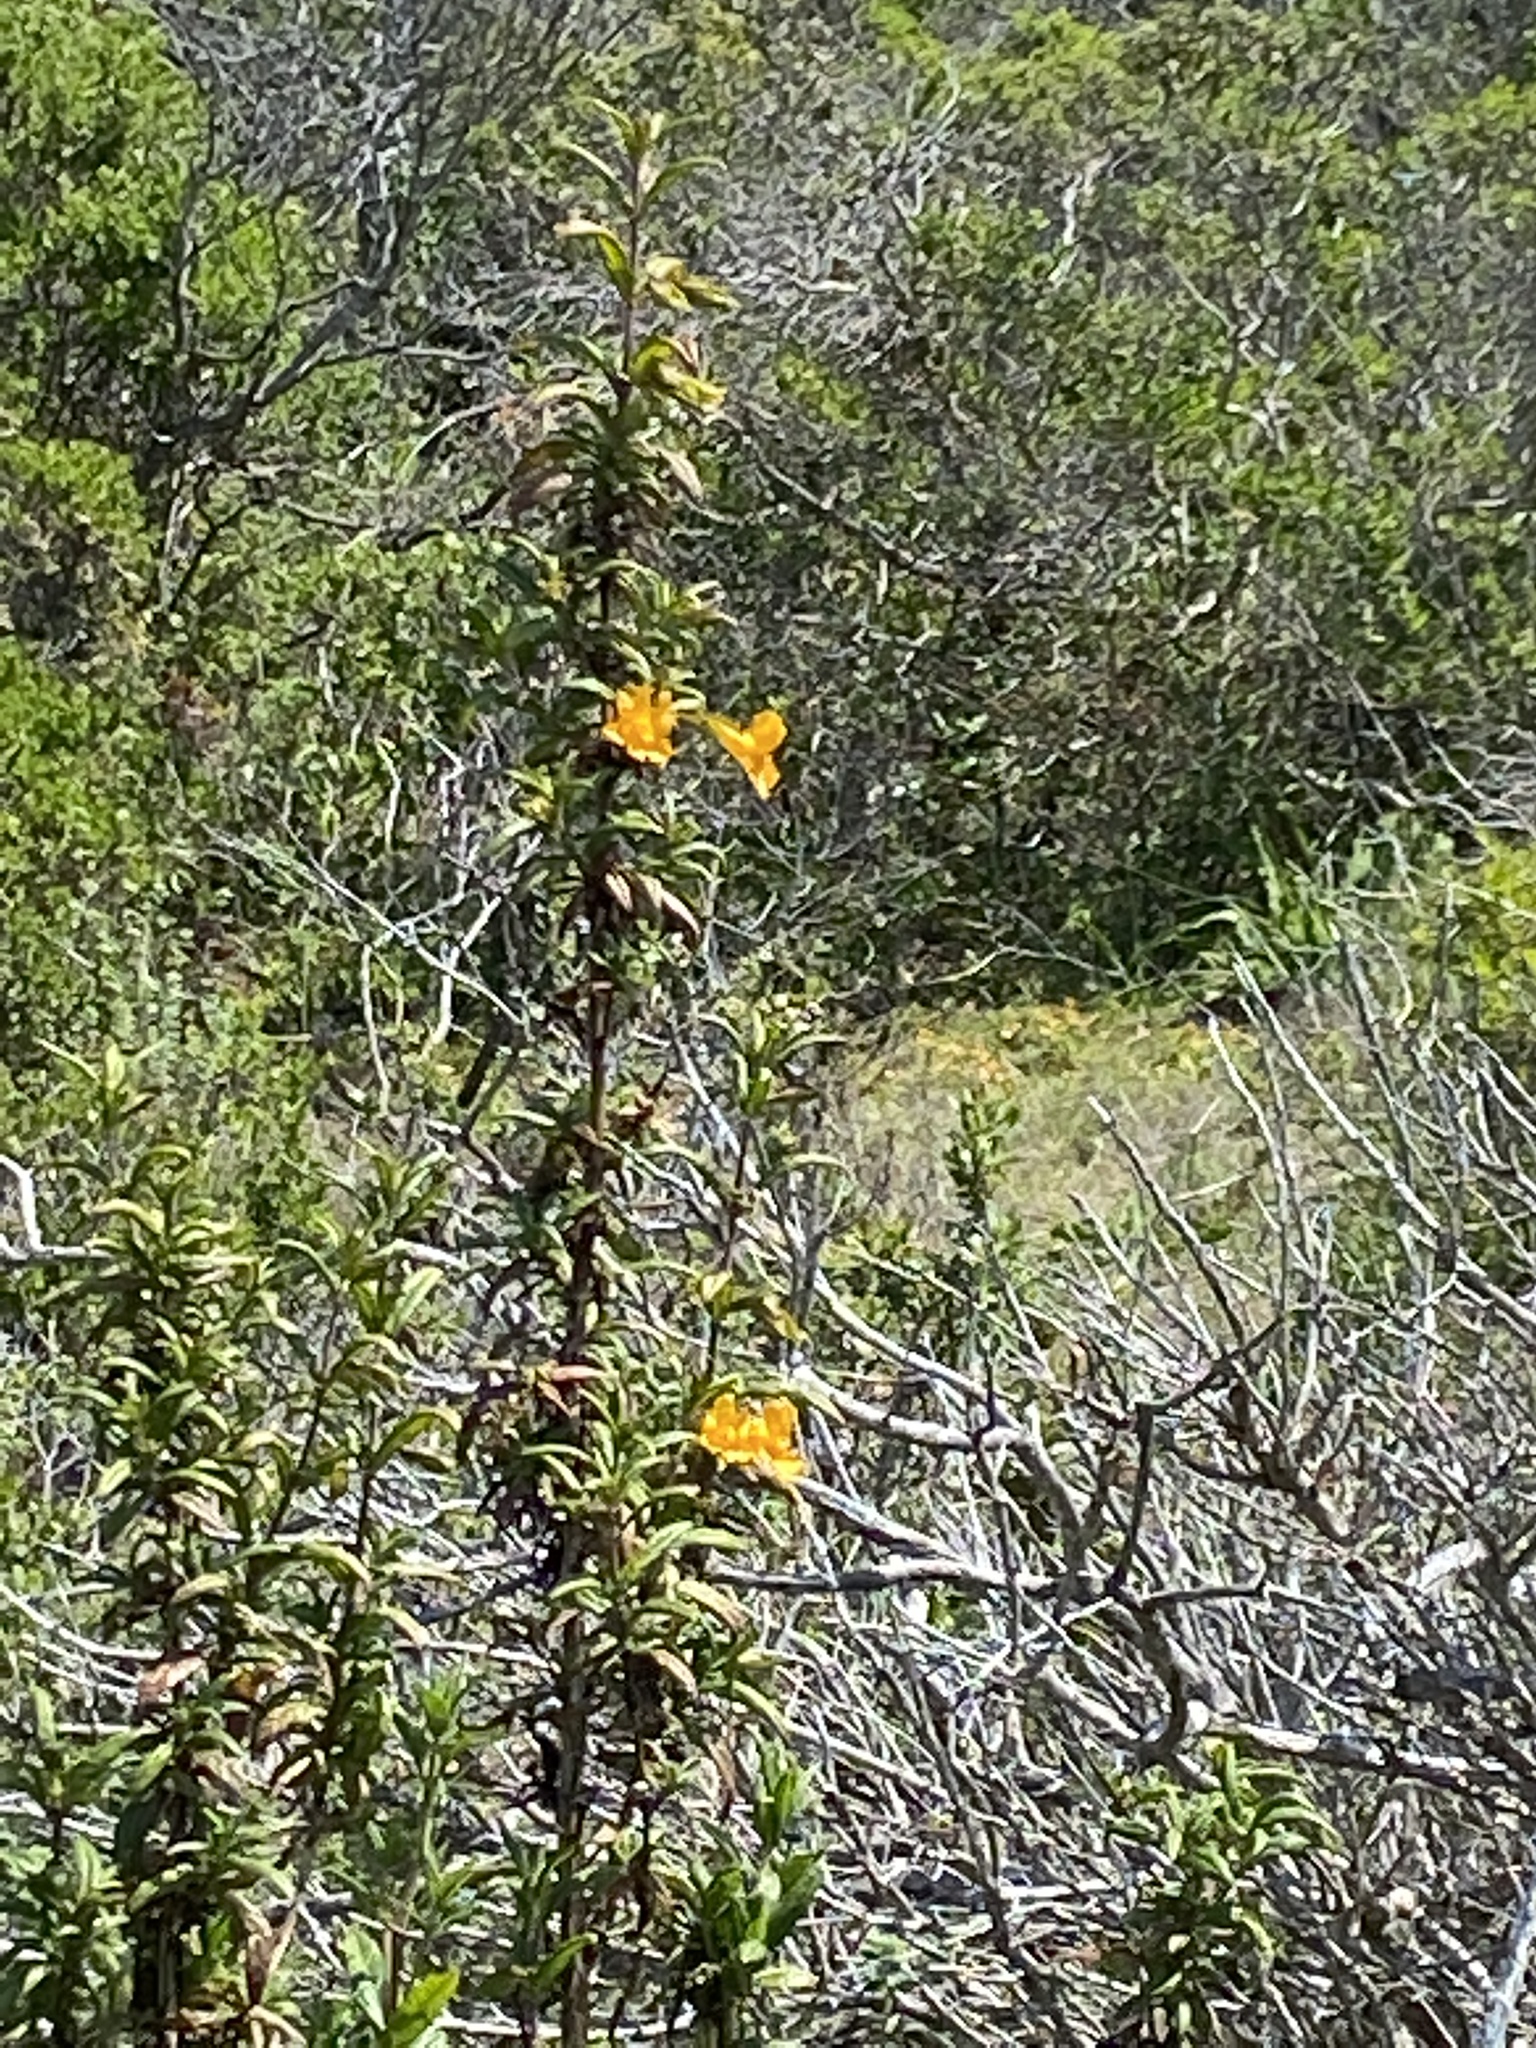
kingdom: Plantae
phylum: Tracheophyta
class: Magnoliopsida
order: Lamiales
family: Phrymaceae
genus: Diplacus
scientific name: Diplacus aurantiacus
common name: Bush monkey-flower
